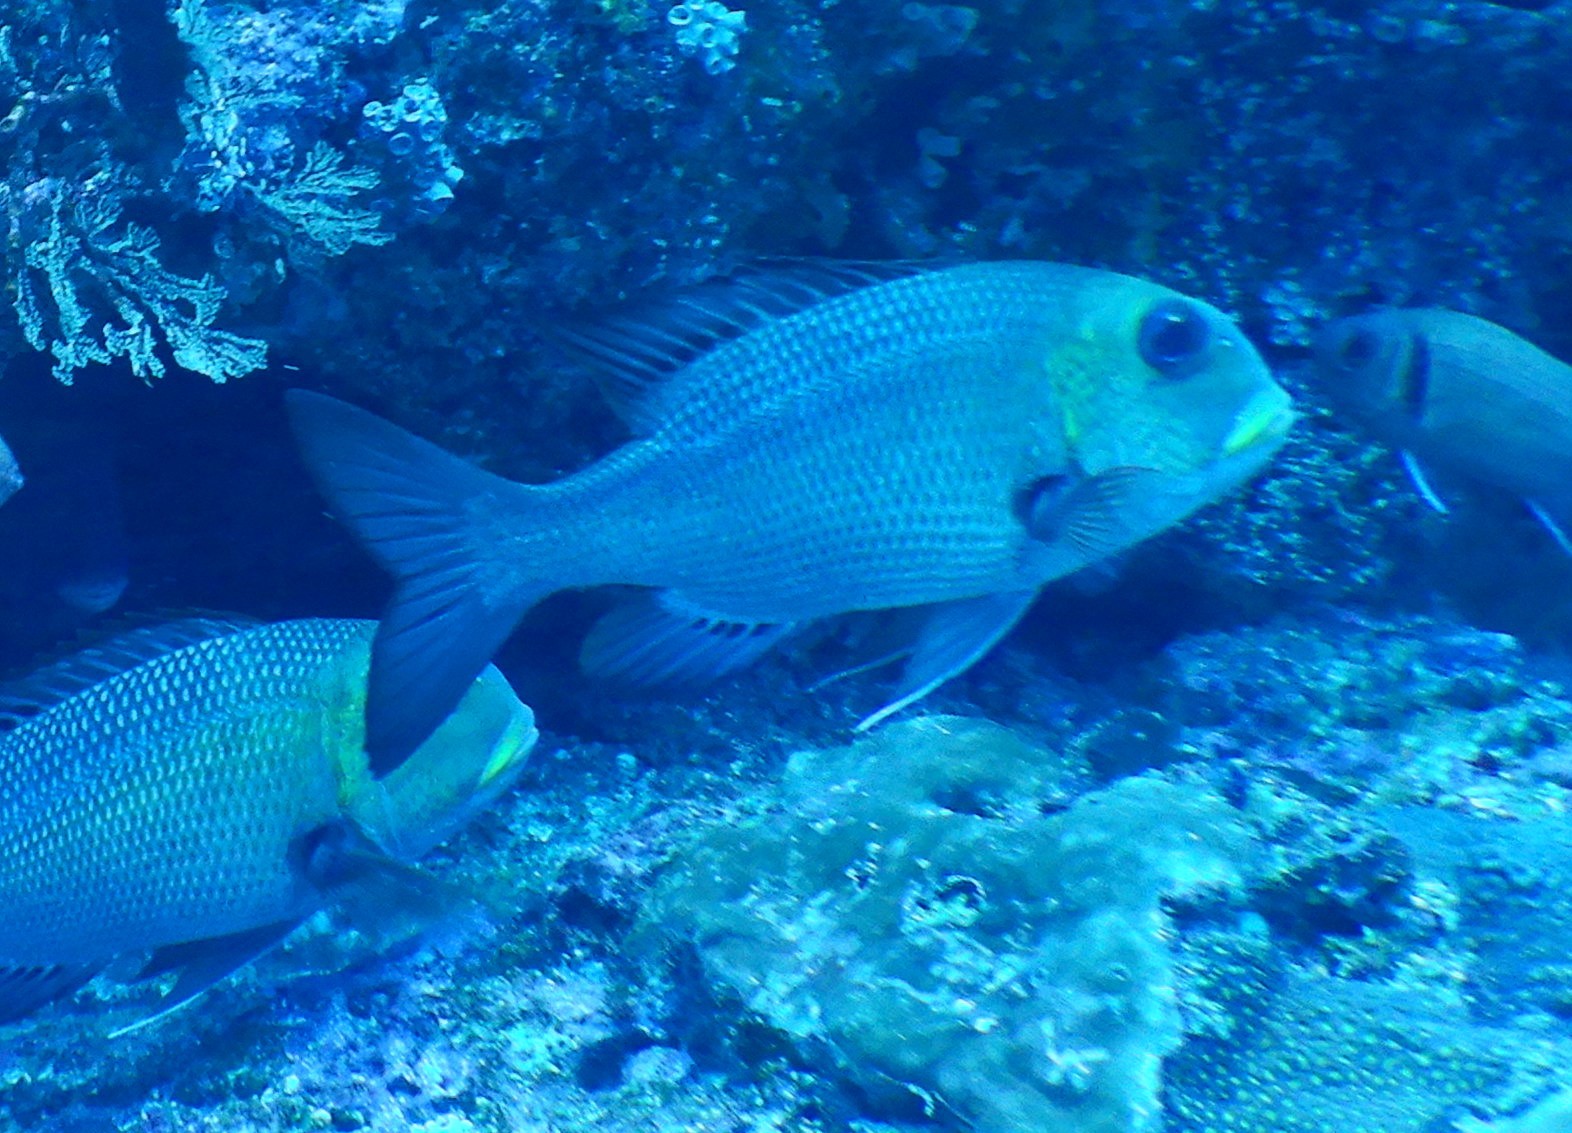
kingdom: Animalia
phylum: Chordata
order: Perciformes
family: Lethrinidae
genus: Monotaxis
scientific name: Monotaxis grandoculis
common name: Bigeye emperor
